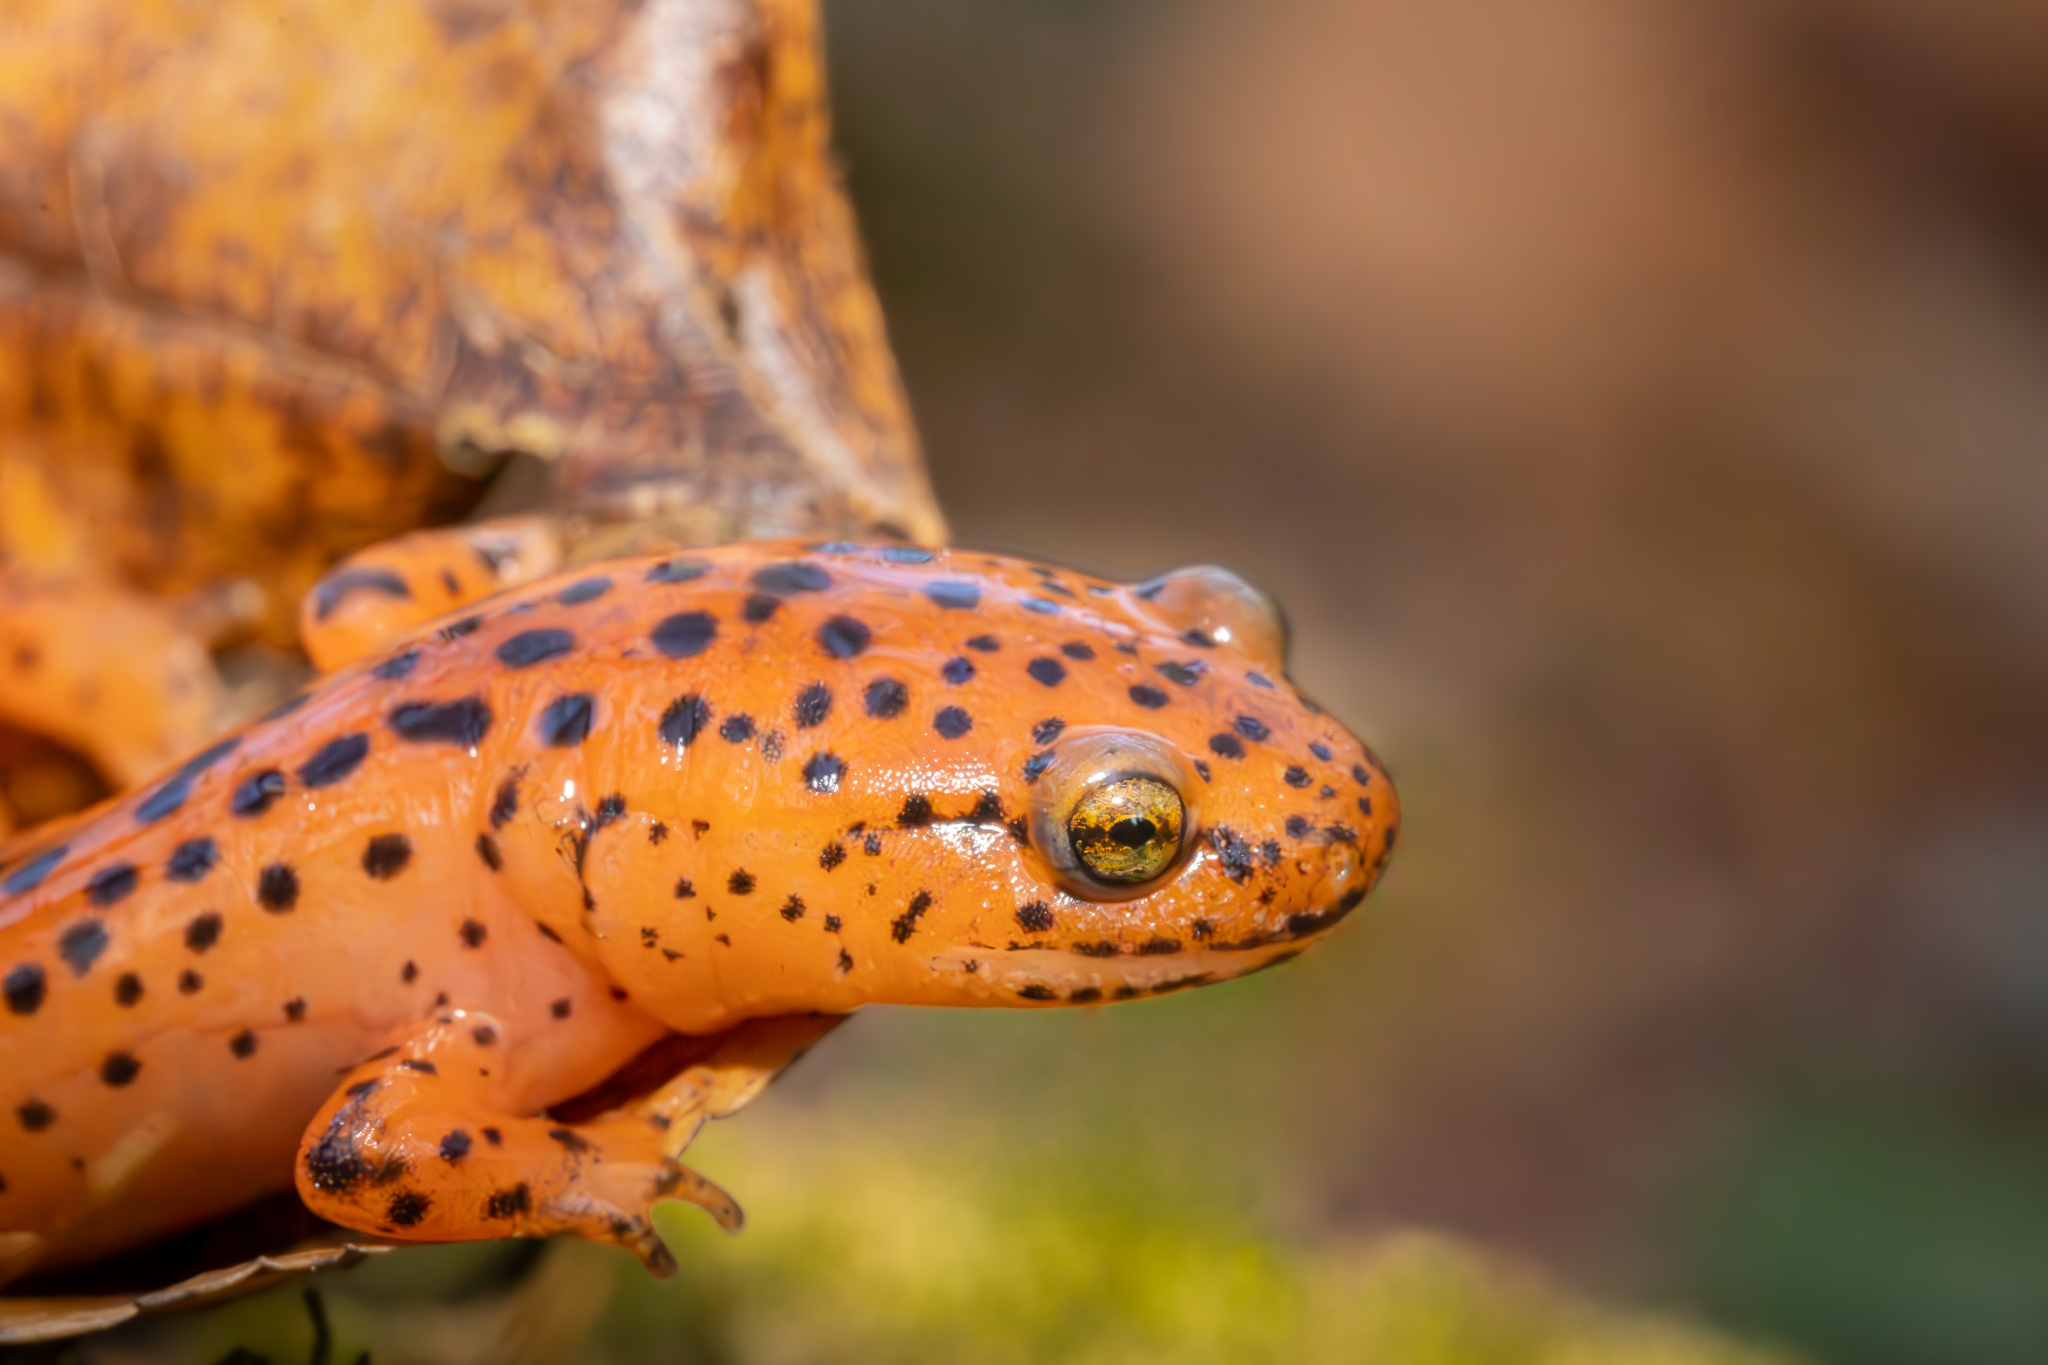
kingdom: Animalia
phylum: Chordata
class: Amphibia
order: Caudata
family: Plethodontidae
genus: Pseudotriton
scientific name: Pseudotriton ruber
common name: Red salamander
